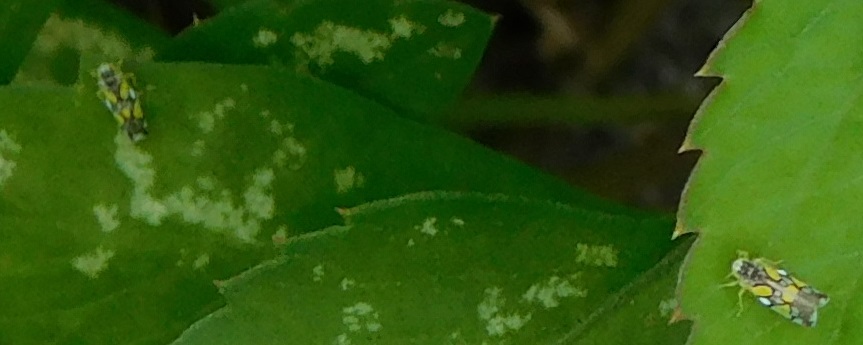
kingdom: Animalia
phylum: Arthropoda
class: Insecta
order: Hemiptera
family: Cicadellidae
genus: Protalebrella
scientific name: Protalebrella brasiliensis
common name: Brasilian leafhopper
